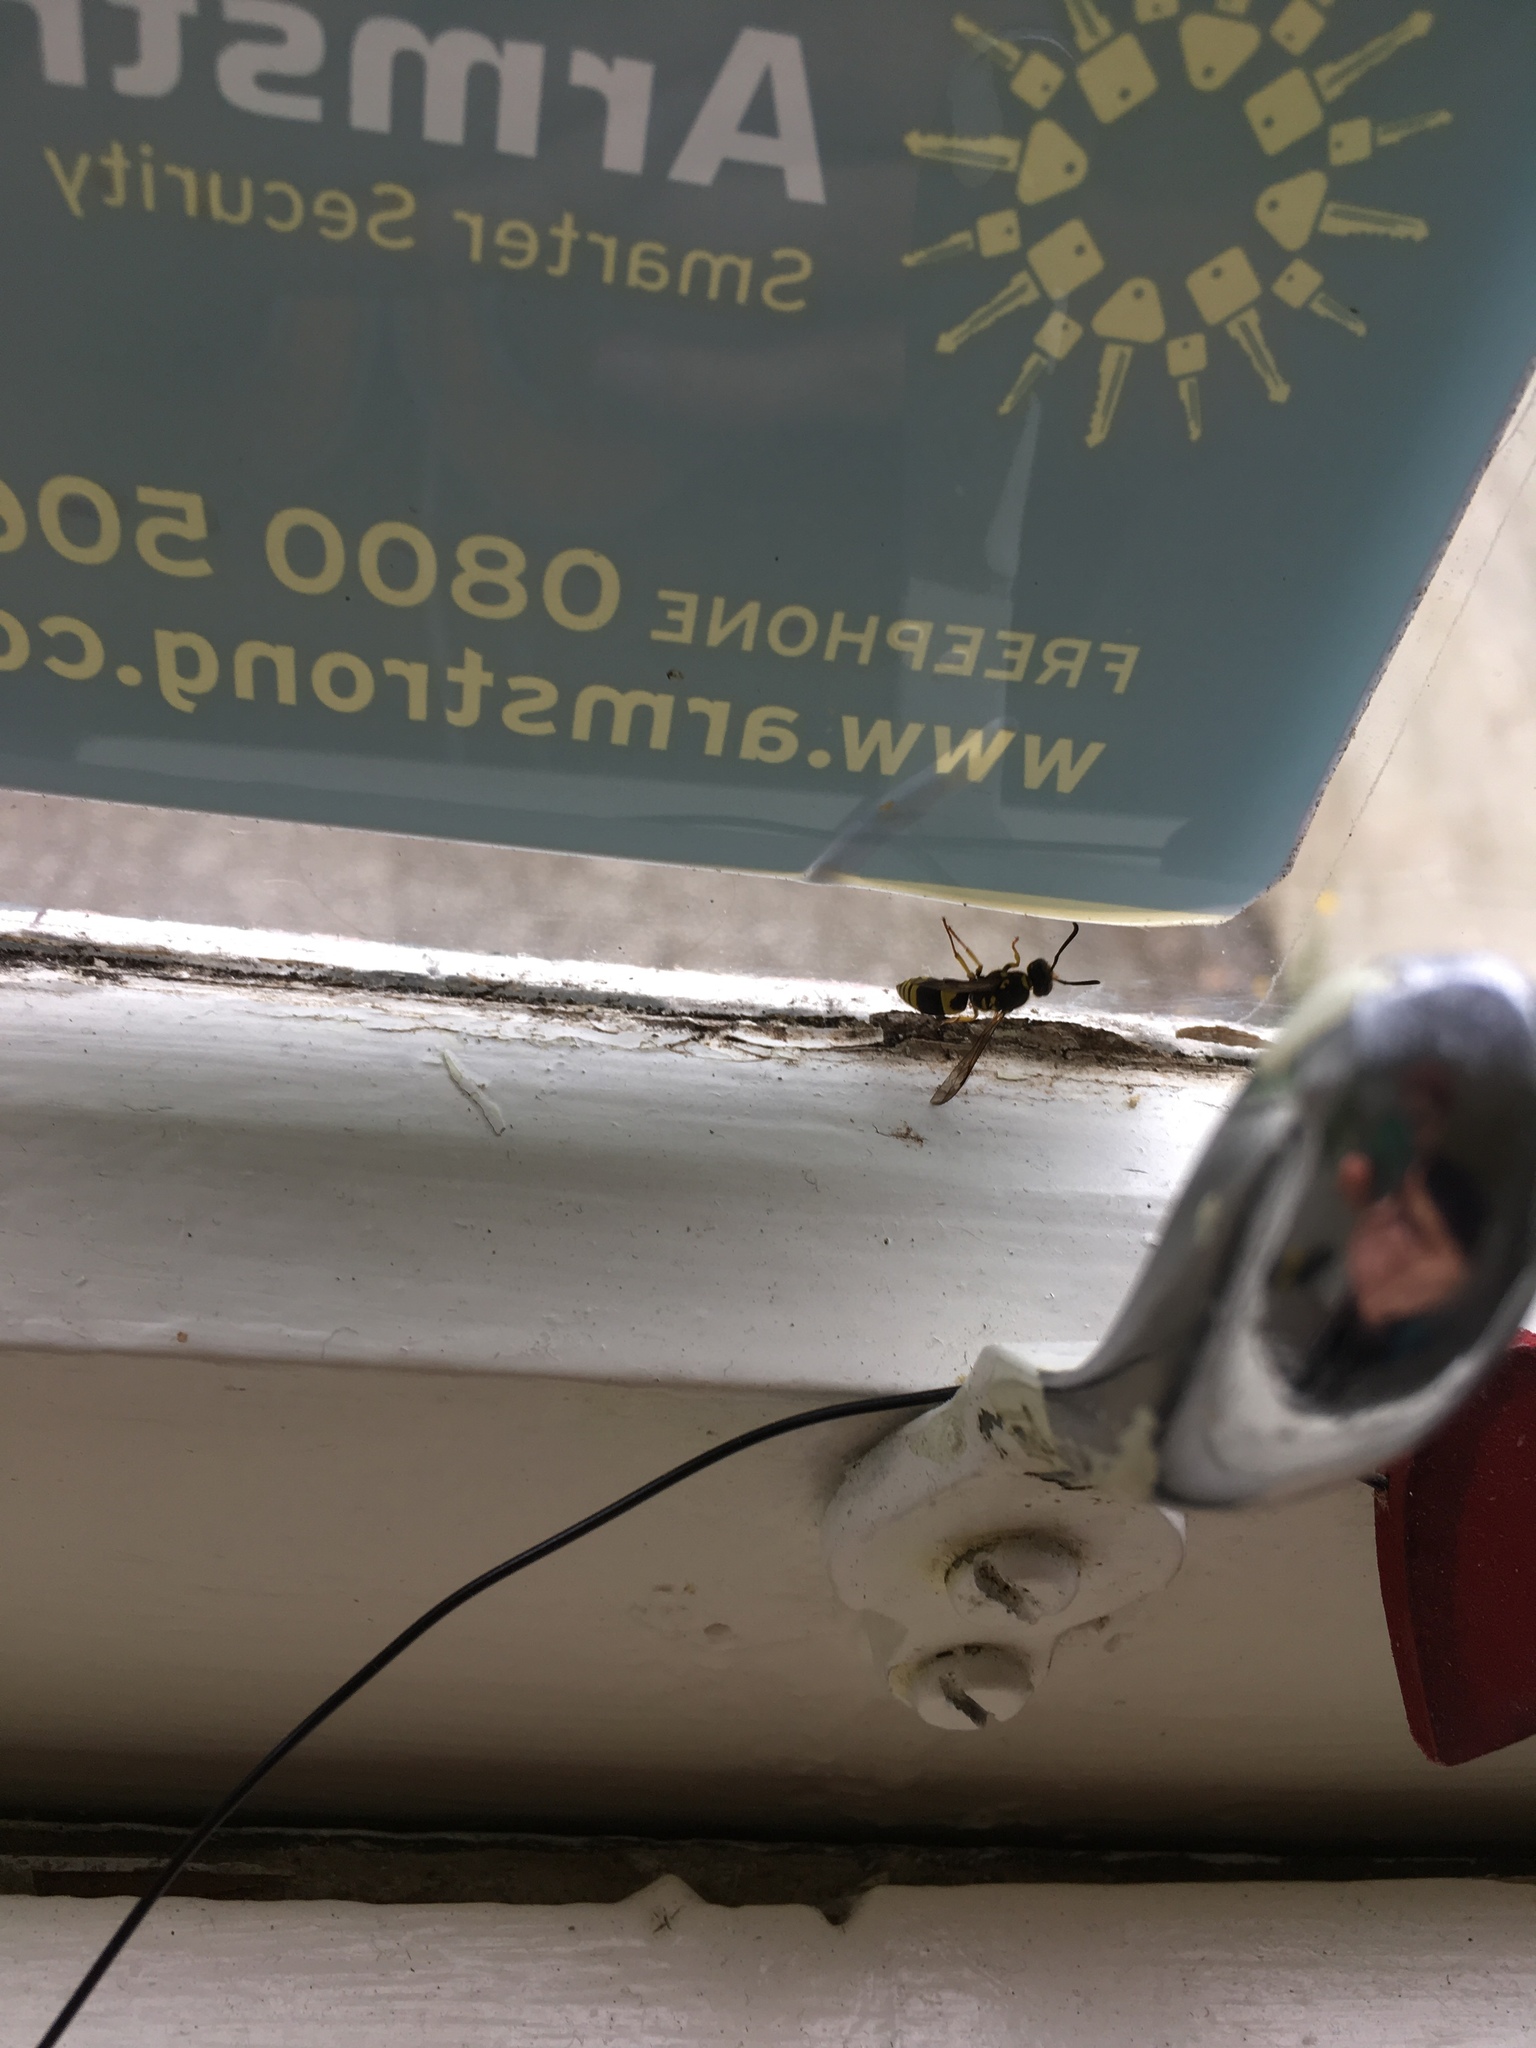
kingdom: Animalia
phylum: Arthropoda
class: Insecta
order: Hymenoptera
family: Vespidae
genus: Ancistrocerus
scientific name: Ancistrocerus gazella
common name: European tube wasp
